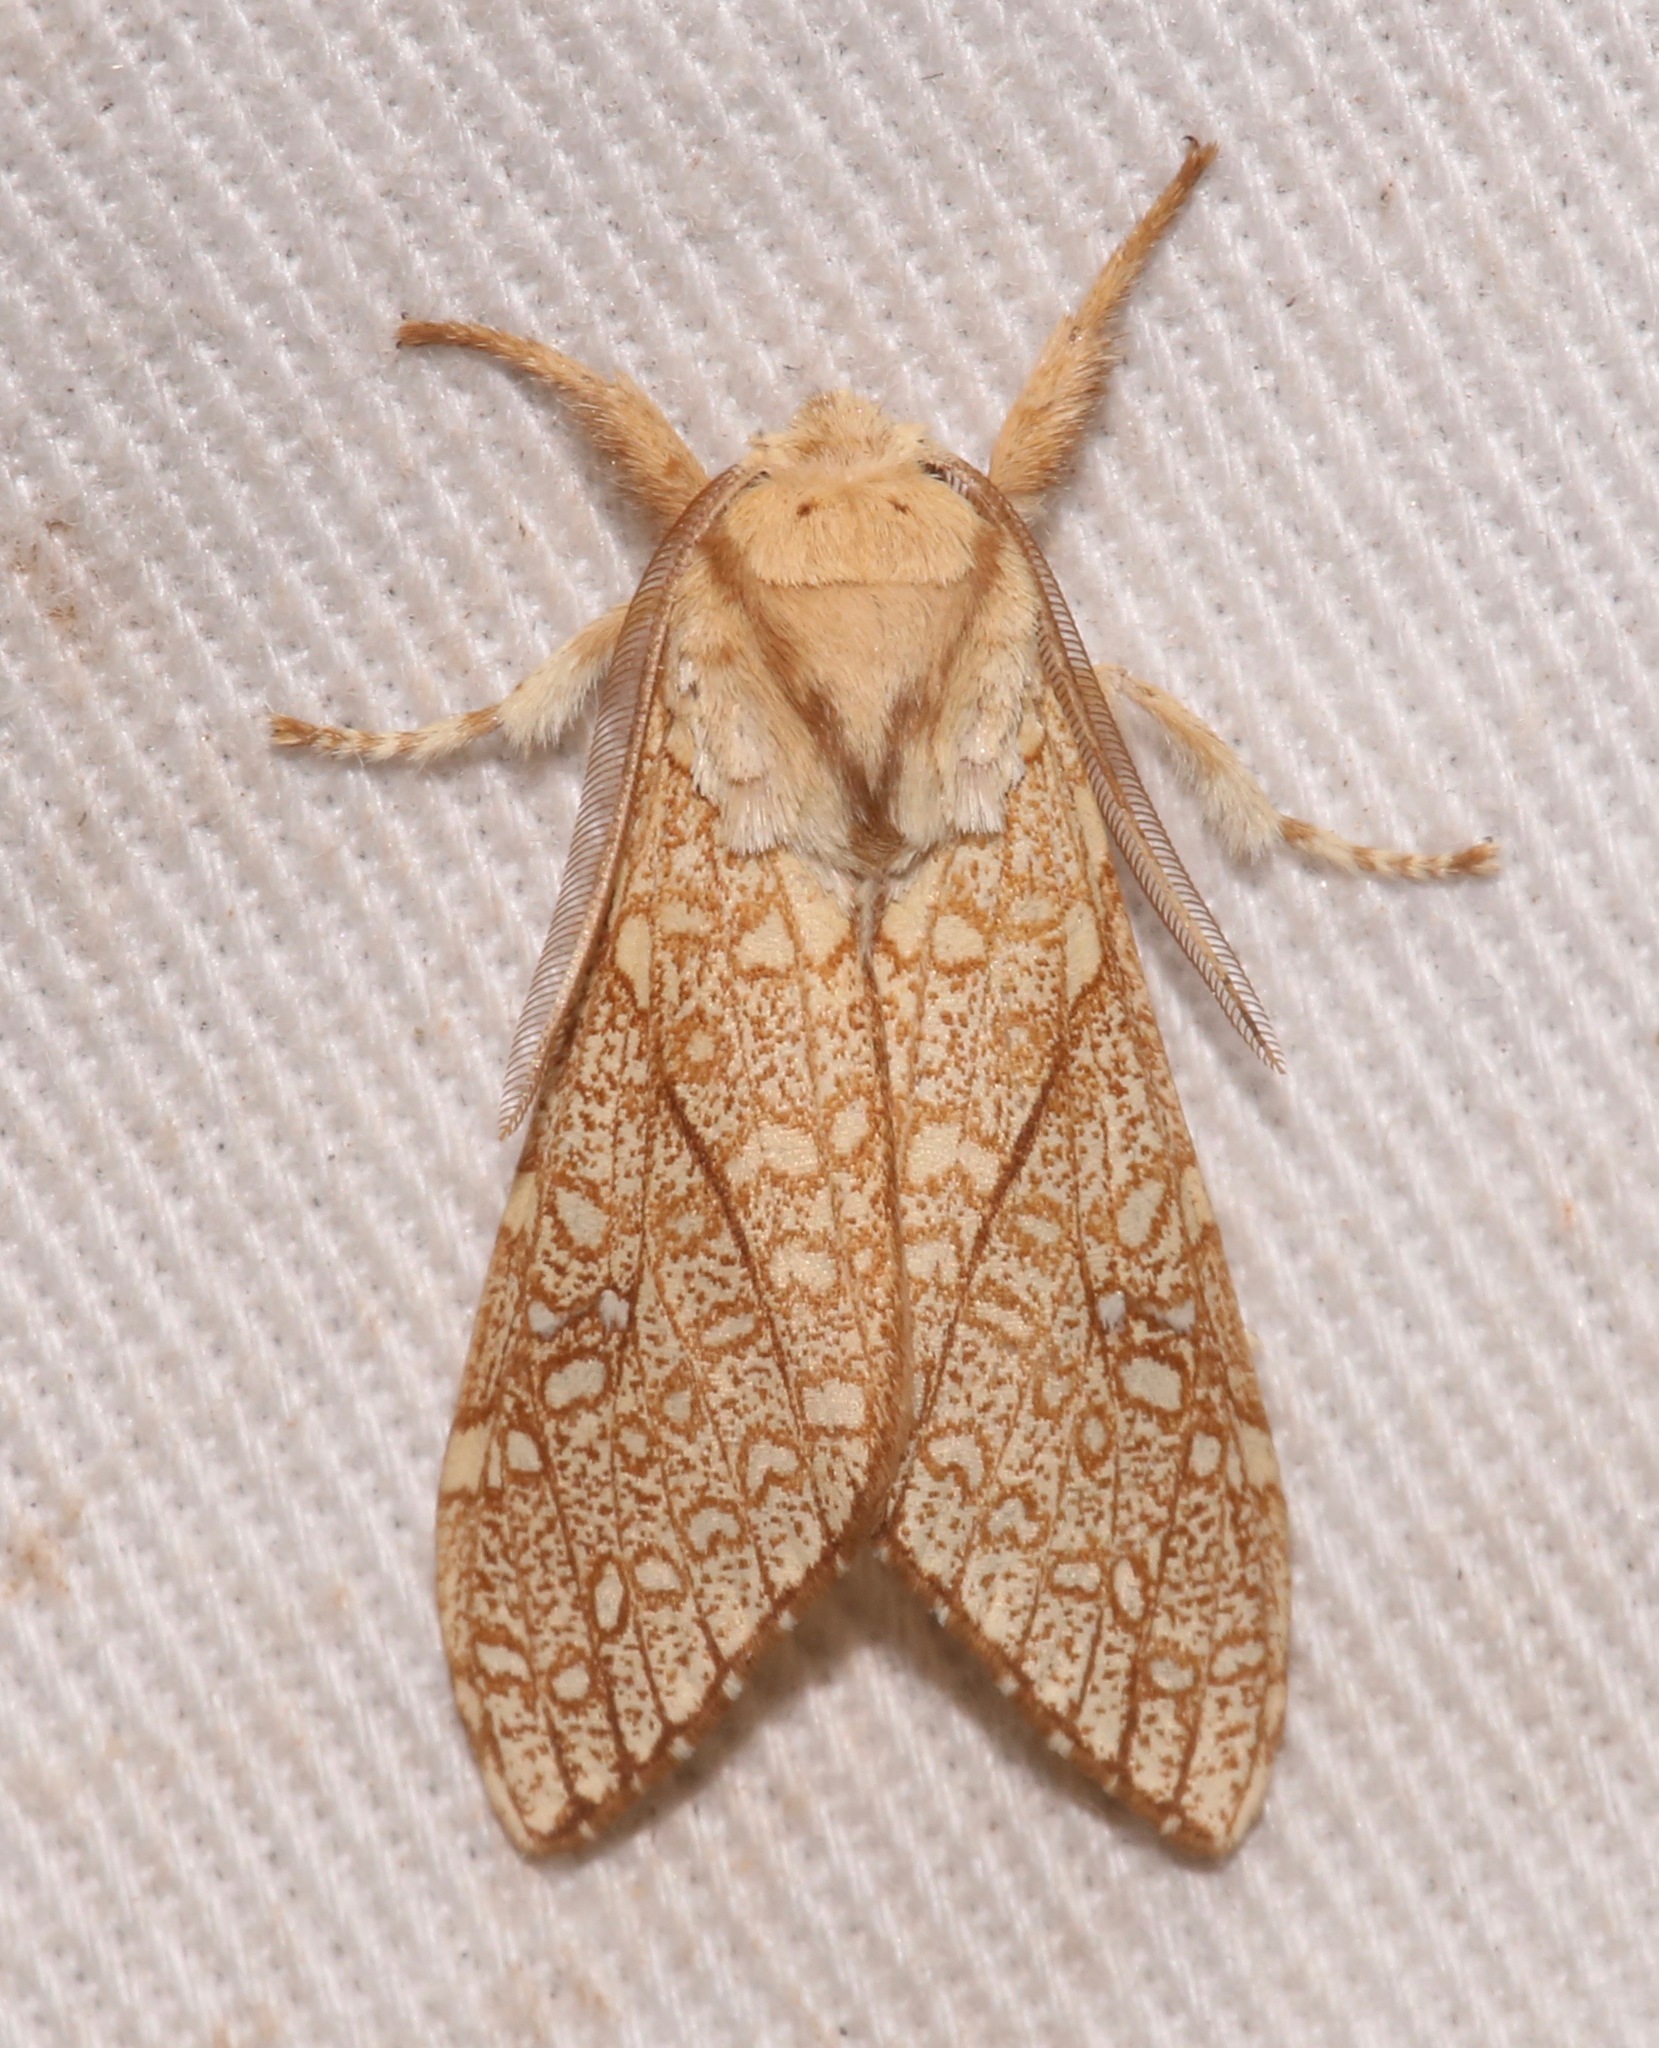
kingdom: Animalia
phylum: Arthropoda
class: Insecta
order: Lepidoptera
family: Erebidae
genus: Lophocampa
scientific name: Lophocampa mixta
